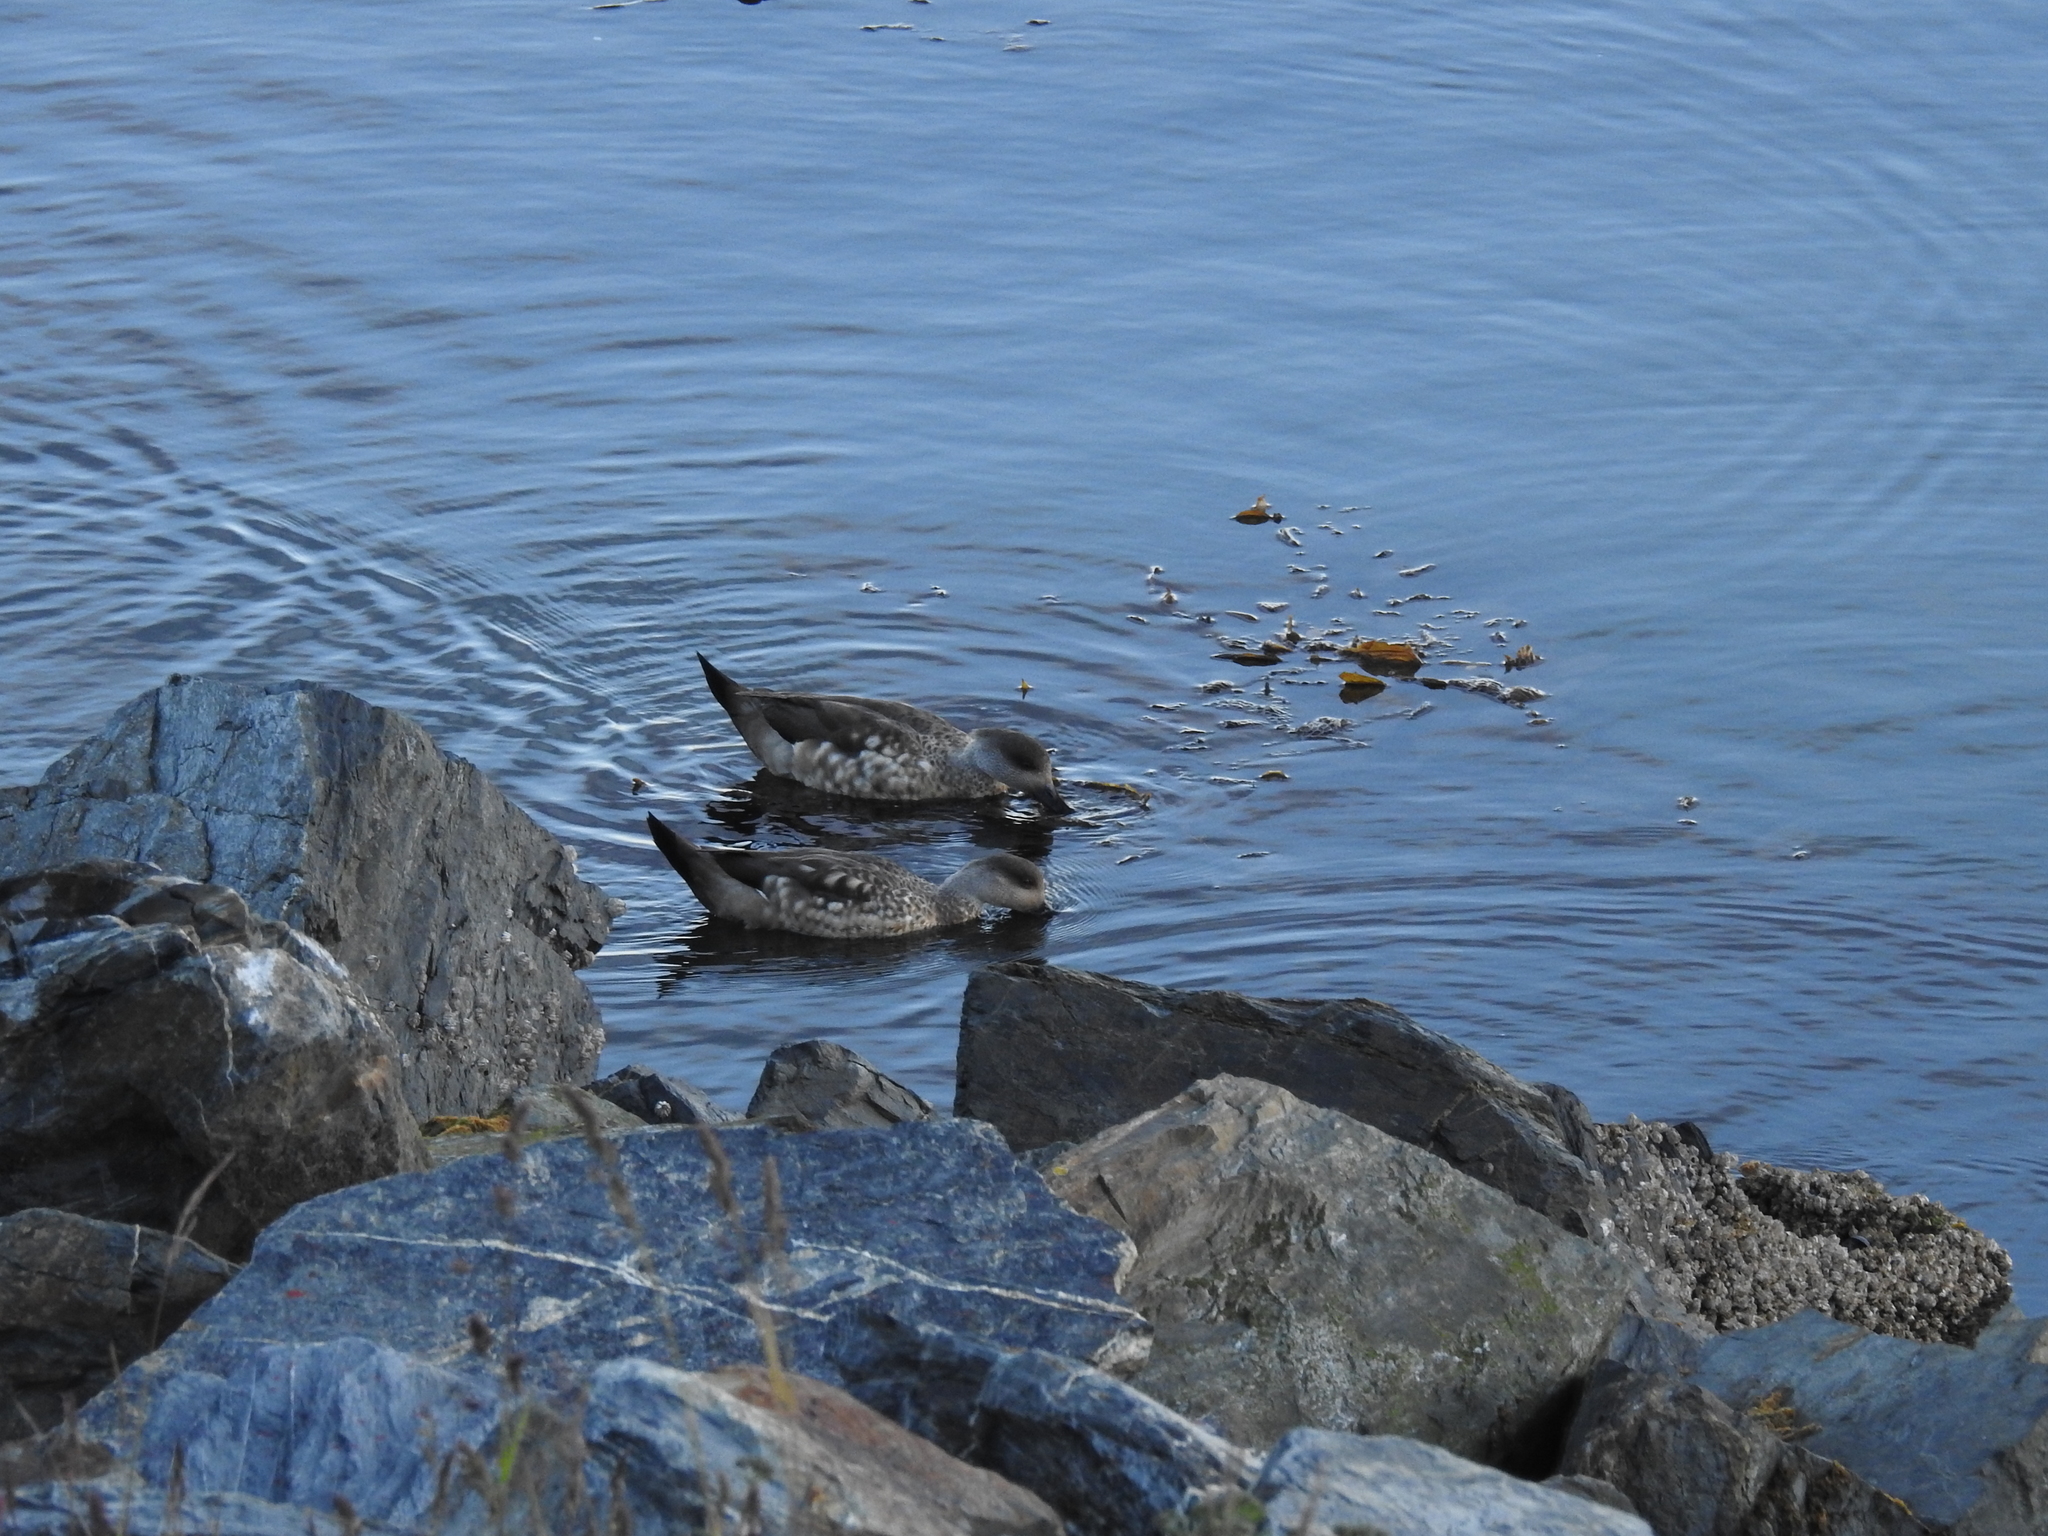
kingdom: Animalia
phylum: Chordata
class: Aves
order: Anseriformes
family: Anatidae
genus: Lophonetta
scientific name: Lophonetta specularioides
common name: Crested duck
